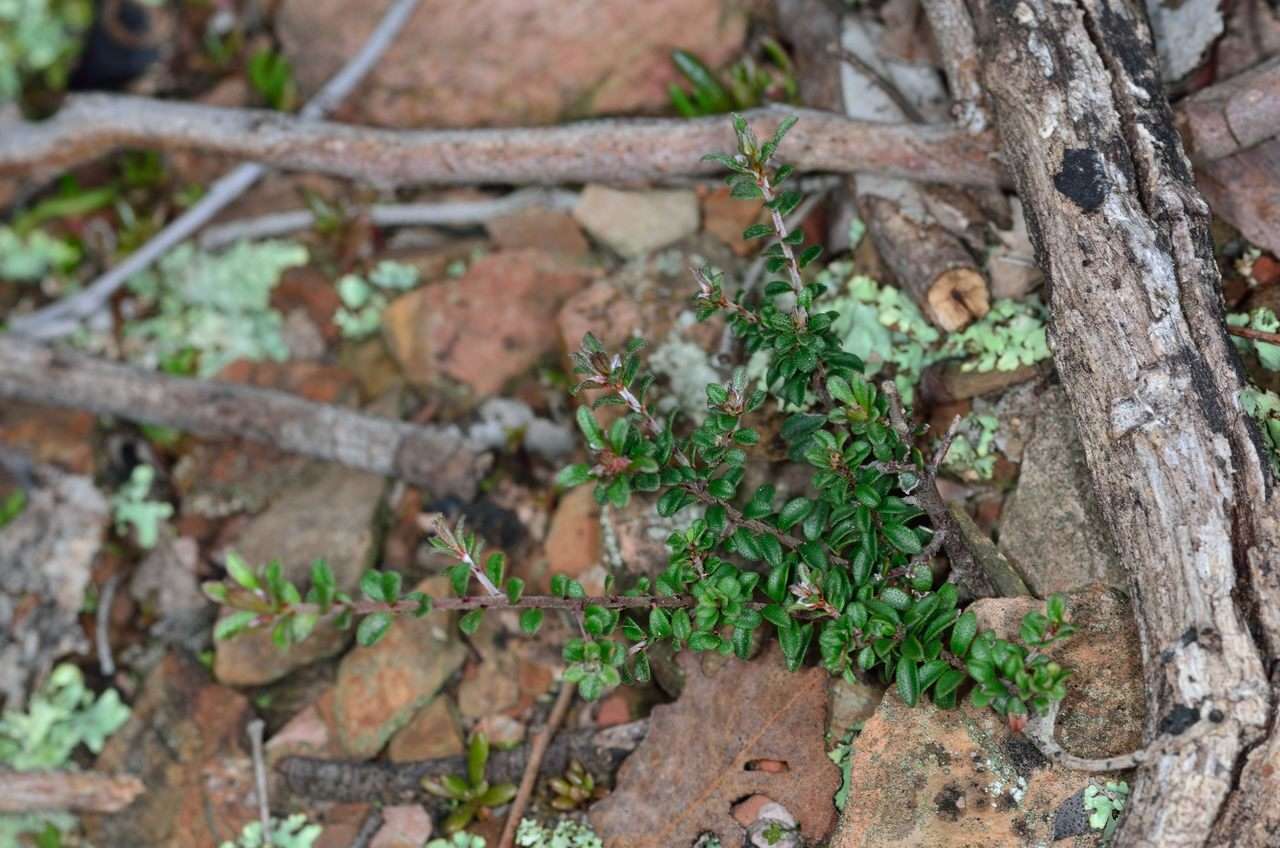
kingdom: Plantae
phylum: Tracheophyta
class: Magnoliopsida
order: Fabales
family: Fabaceae
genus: Pultenaea
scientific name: Pultenaea gunnii
